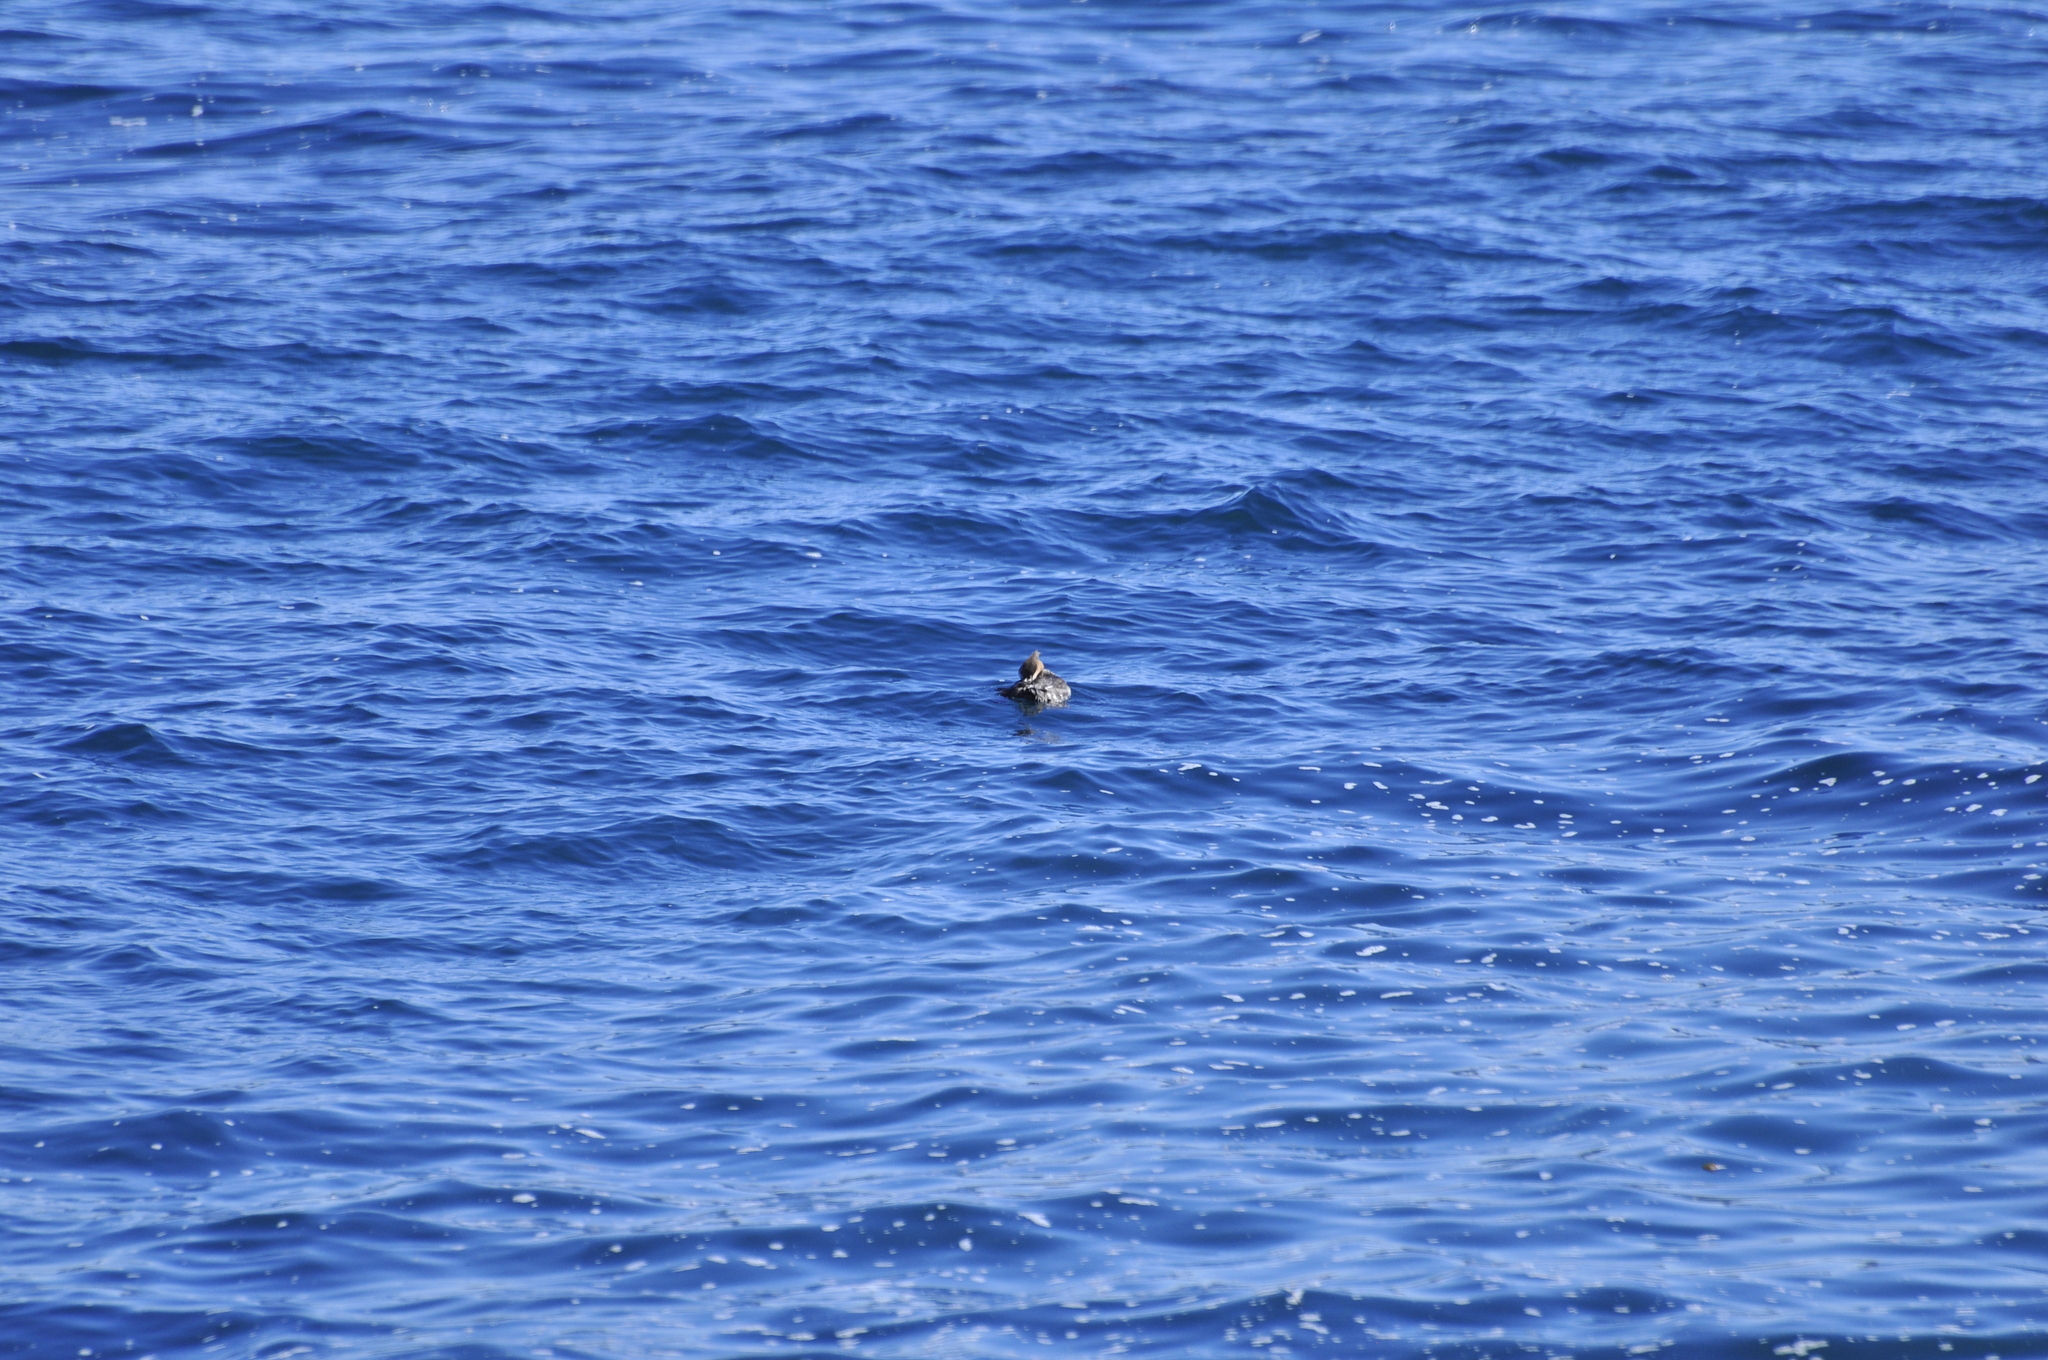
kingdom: Animalia
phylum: Chordata
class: Aves
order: Anseriformes
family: Anatidae
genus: Mergus
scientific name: Mergus serrator
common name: Red-breasted merganser
